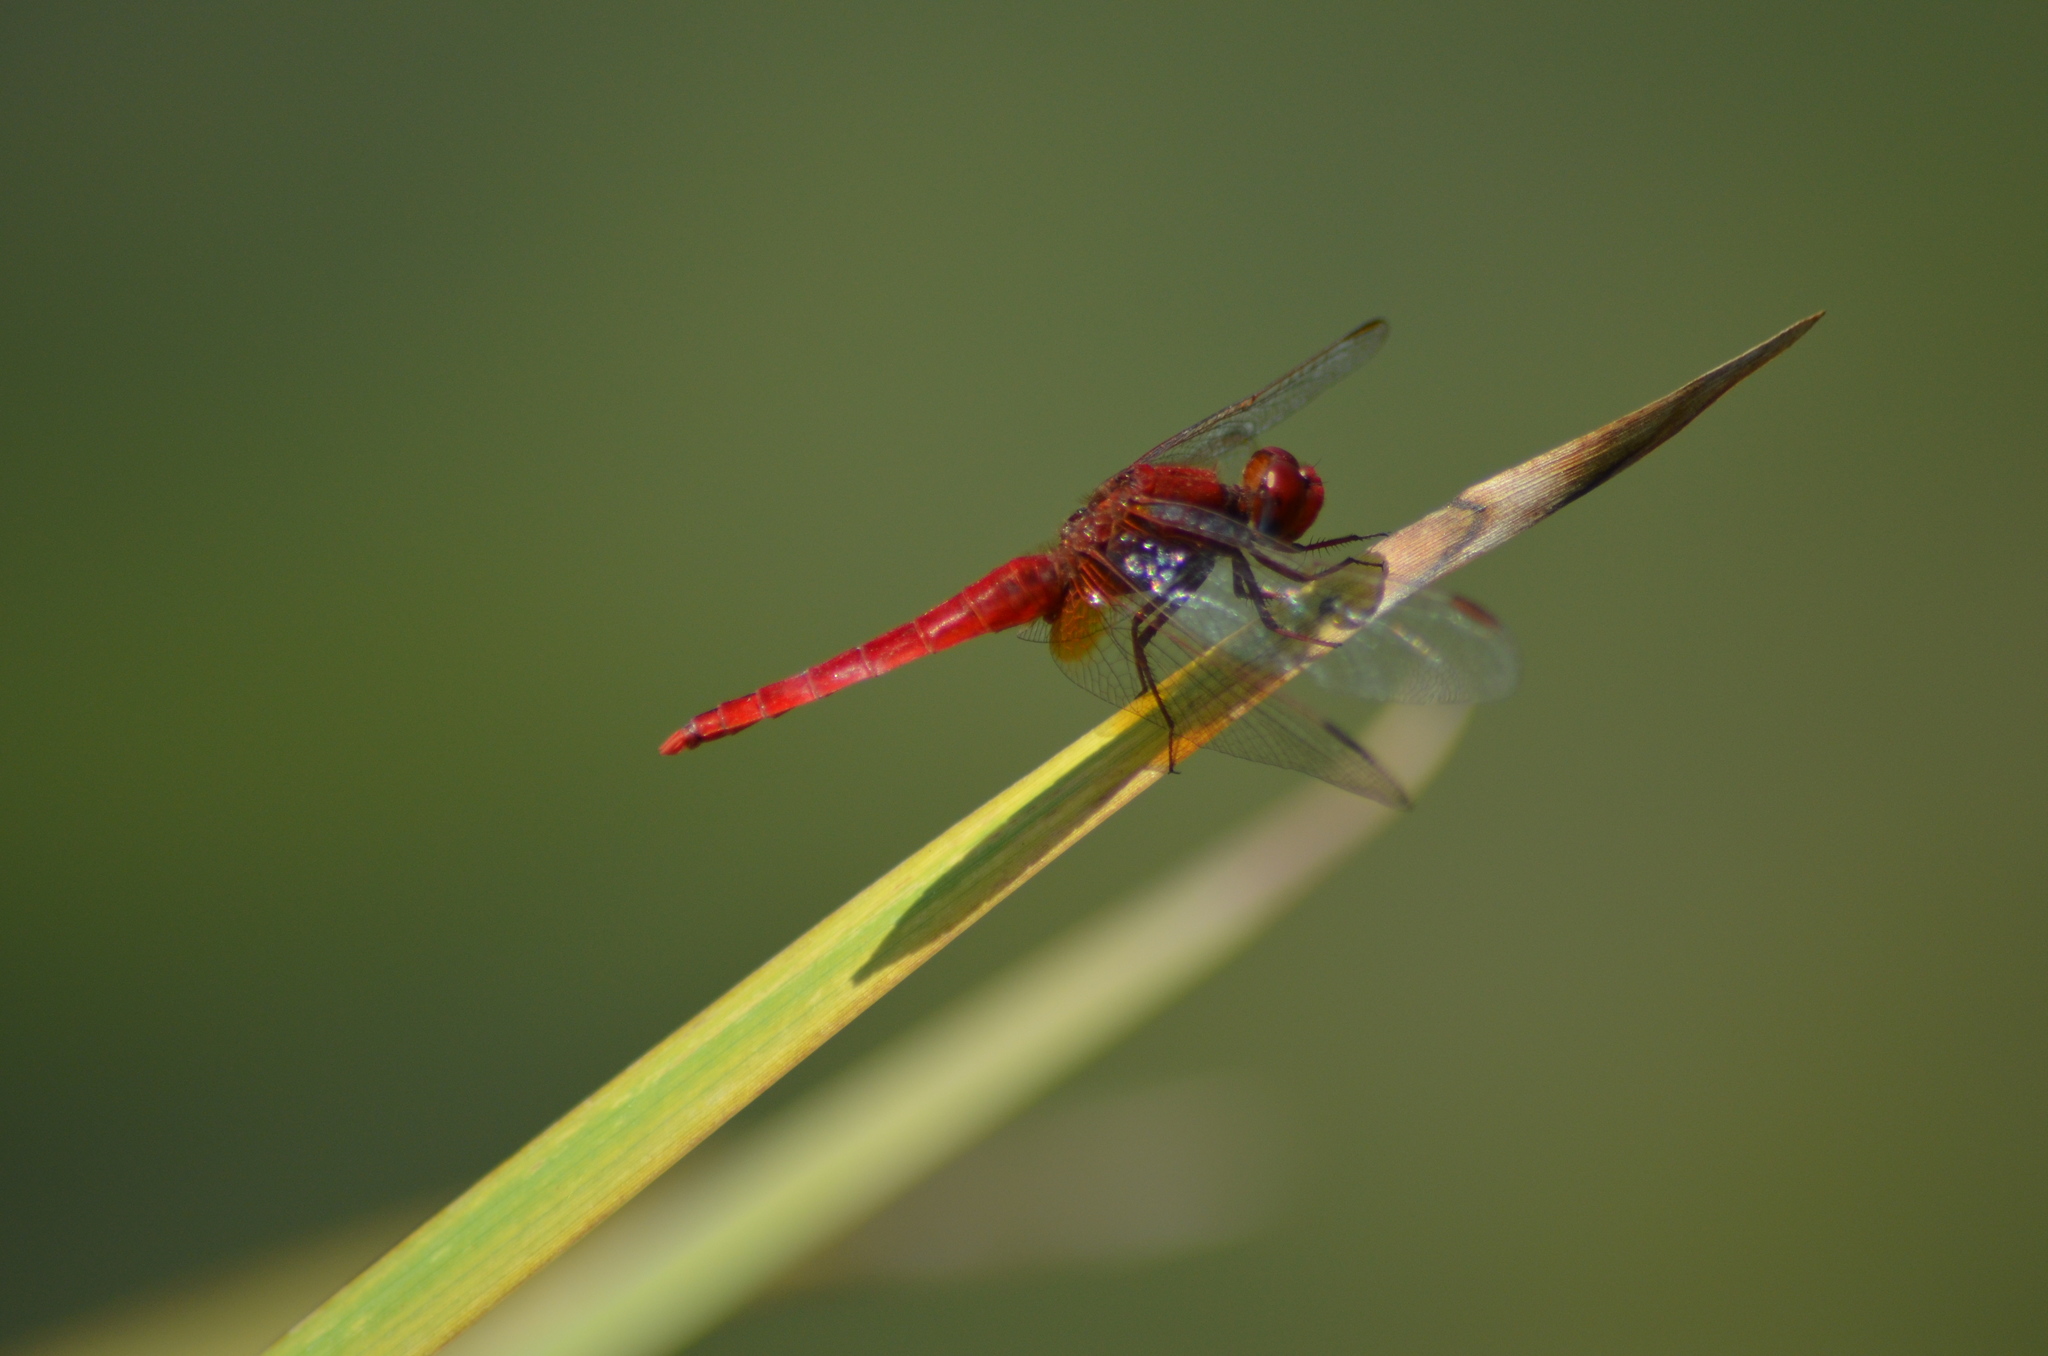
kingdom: Animalia
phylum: Arthropoda
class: Insecta
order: Odonata
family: Libellulidae
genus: Crocothemis
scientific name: Crocothemis erythraea
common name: Scarlet dragonfly
